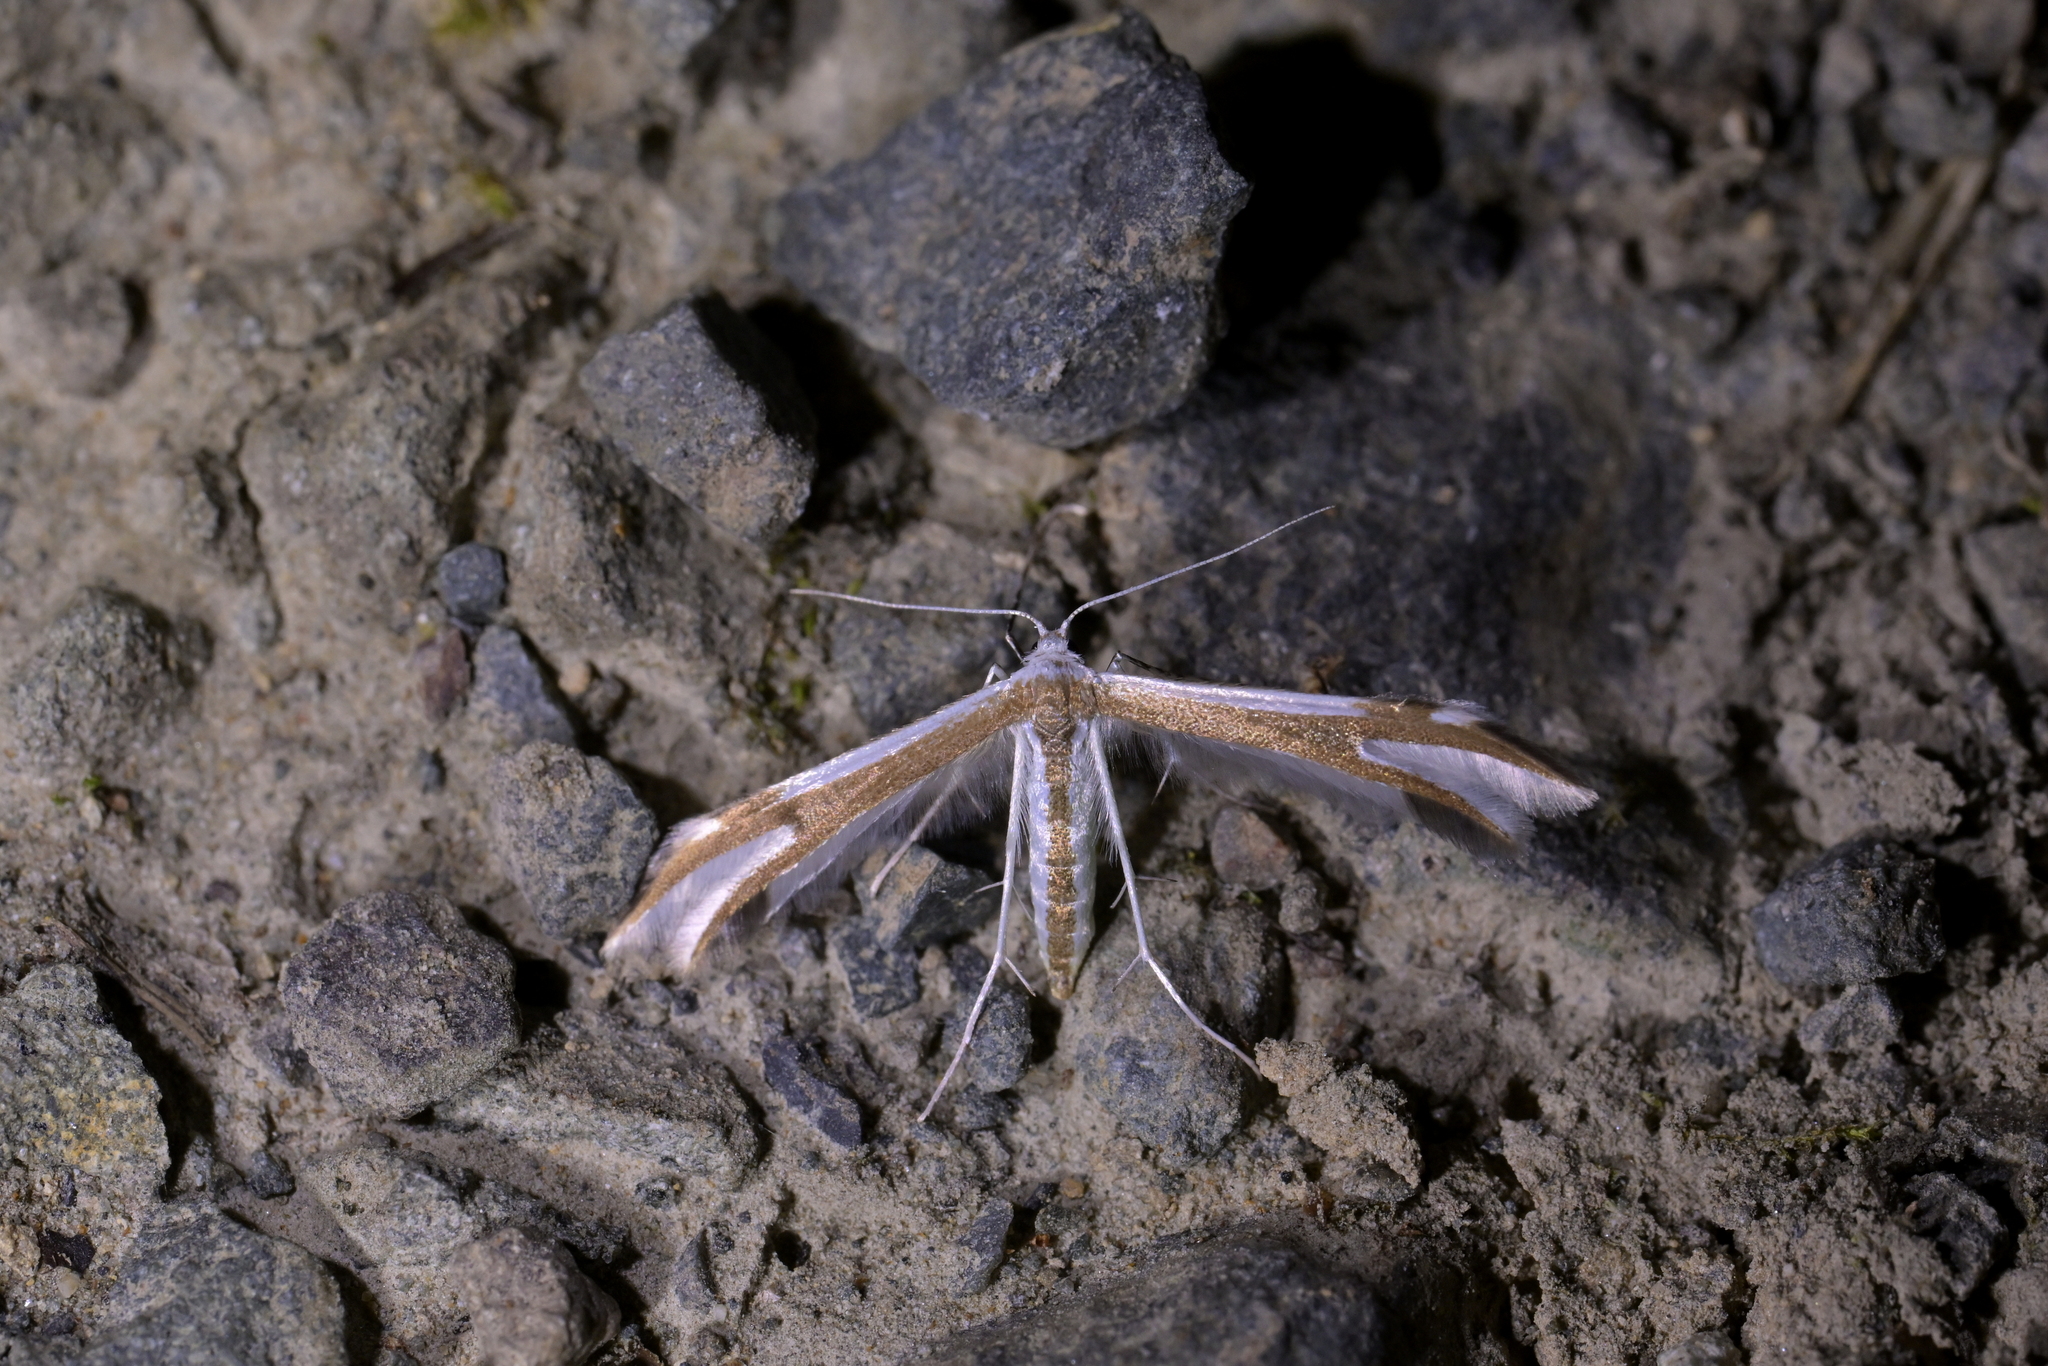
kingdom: Animalia
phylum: Arthropoda
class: Insecta
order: Lepidoptera
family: Pterophoridae
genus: Pterophorus
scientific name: Pterophorus furcatalis
